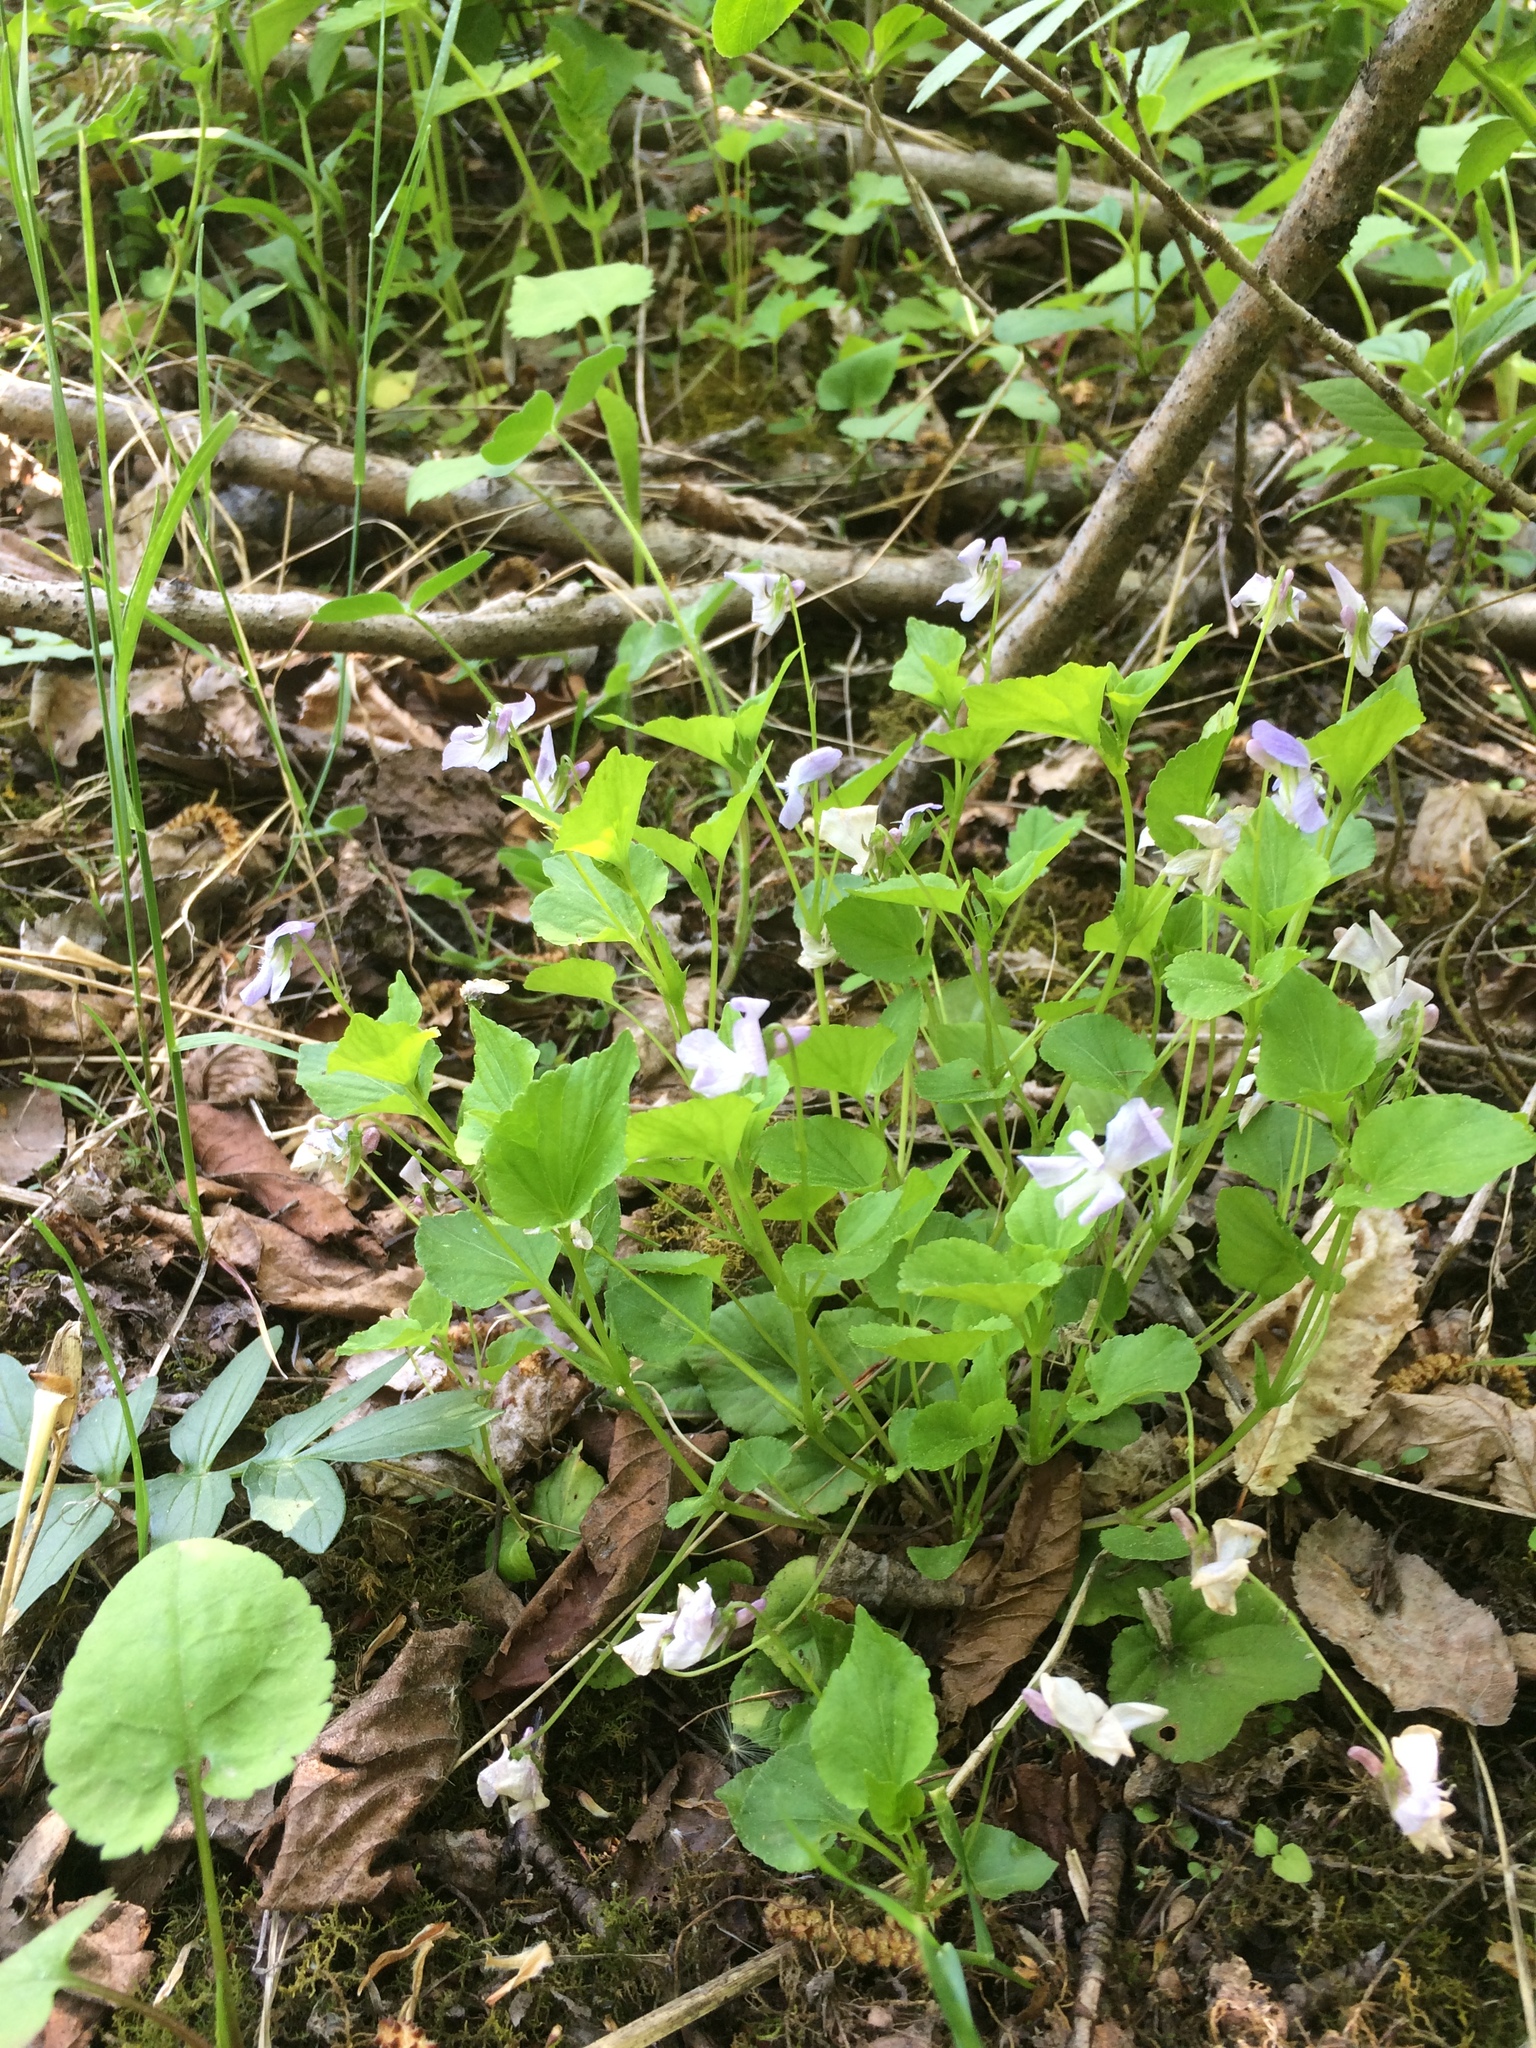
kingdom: Plantae
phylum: Tracheophyta
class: Magnoliopsida
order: Malpighiales
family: Violaceae
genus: Viola
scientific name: Viola labradorica
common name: Labrador violet
